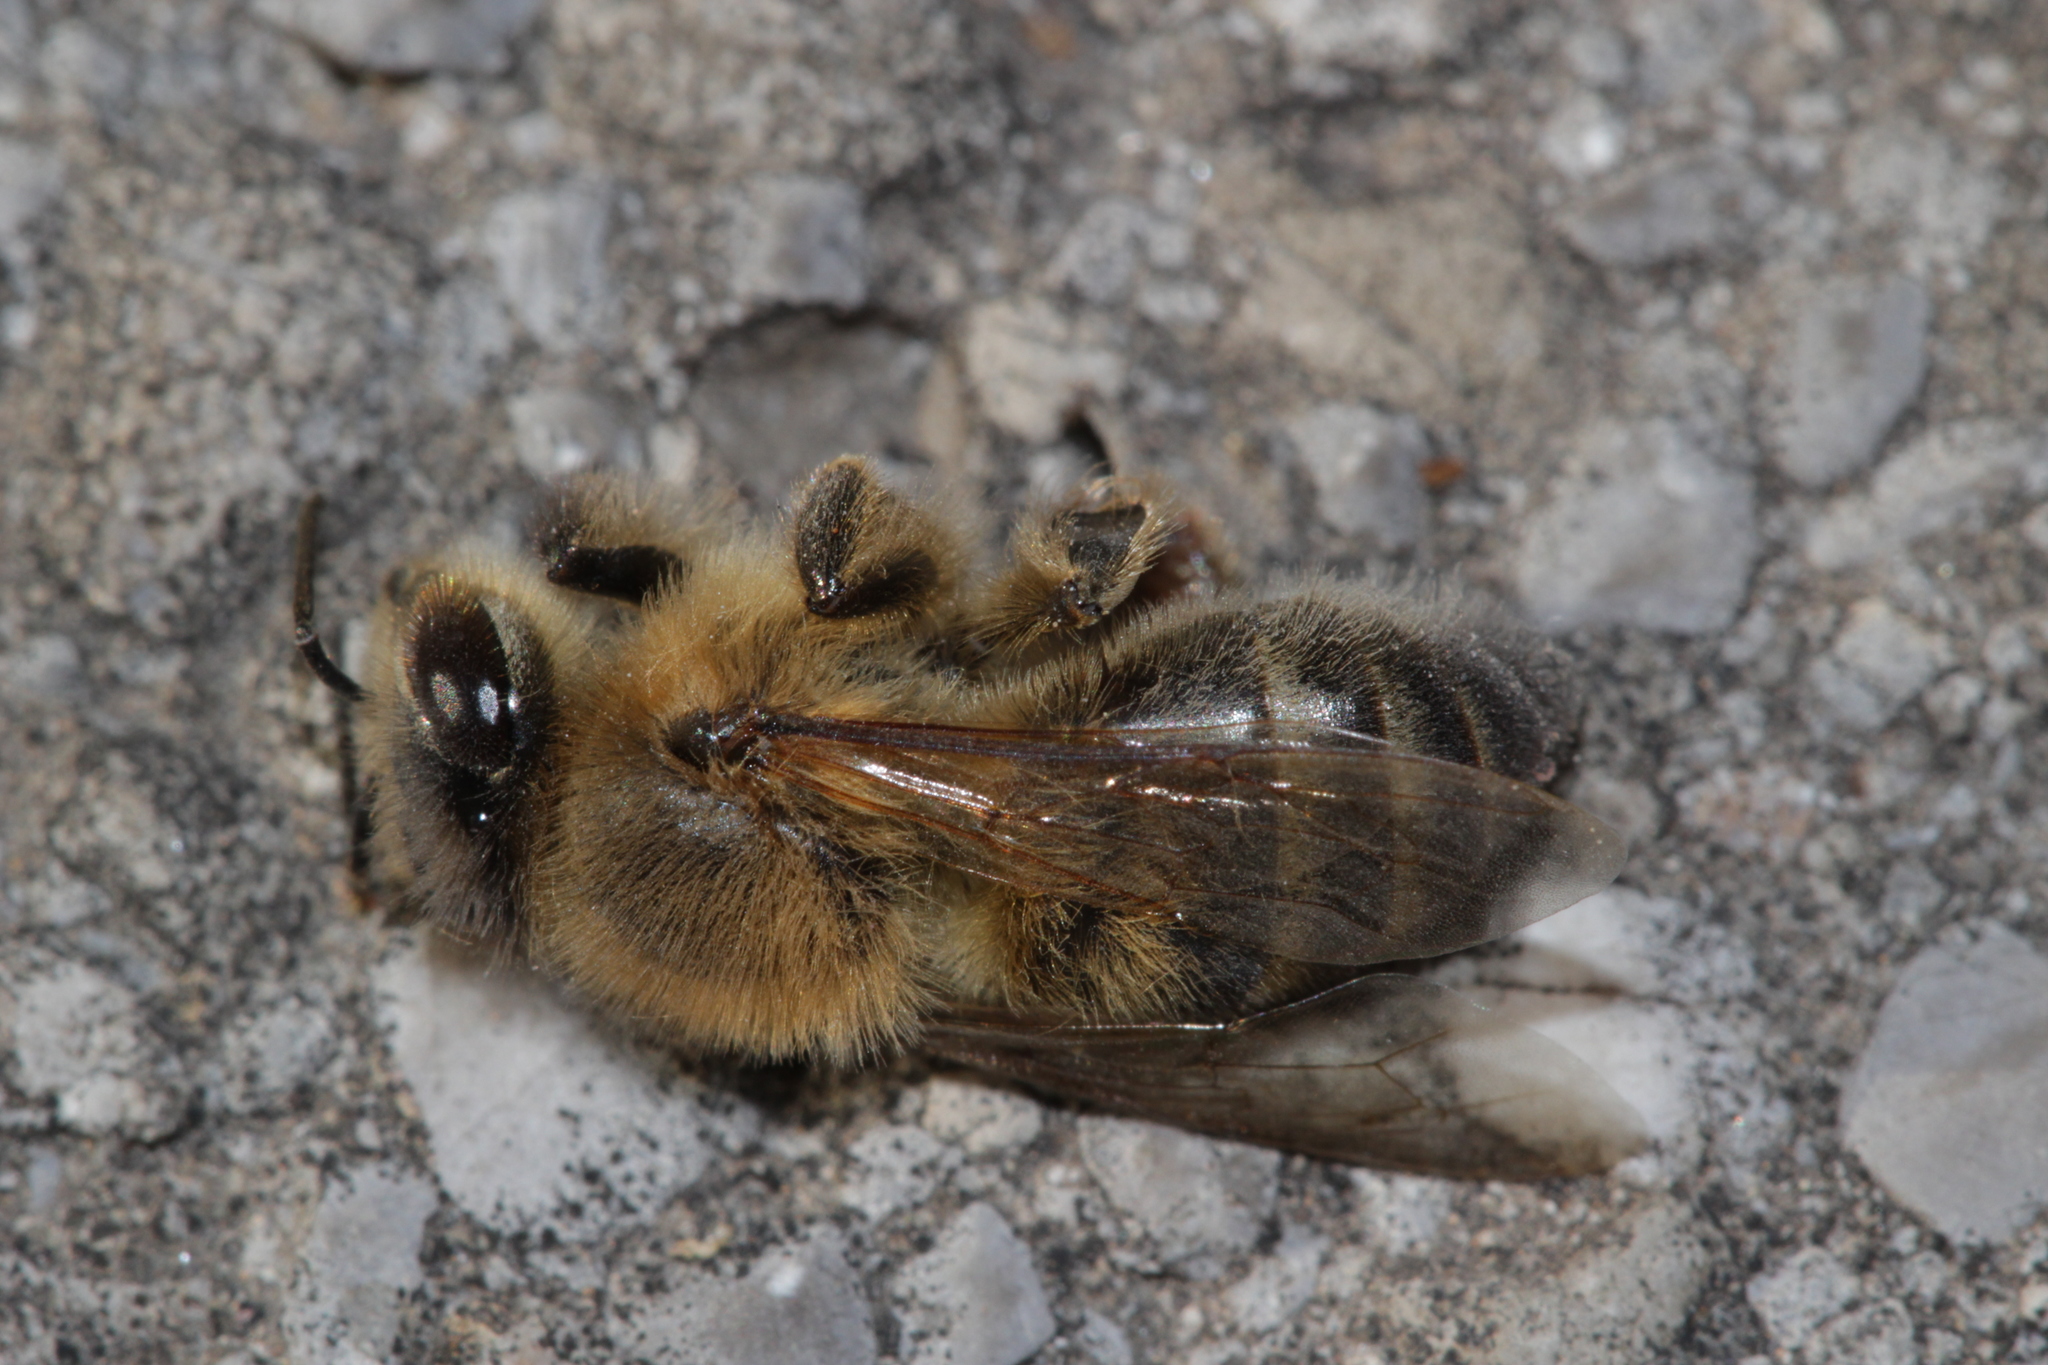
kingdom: Animalia
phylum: Arthropoda
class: Insecta
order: Hymenoptera
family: Apidae
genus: Apis
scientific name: Apis mellifera
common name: Honey bee
